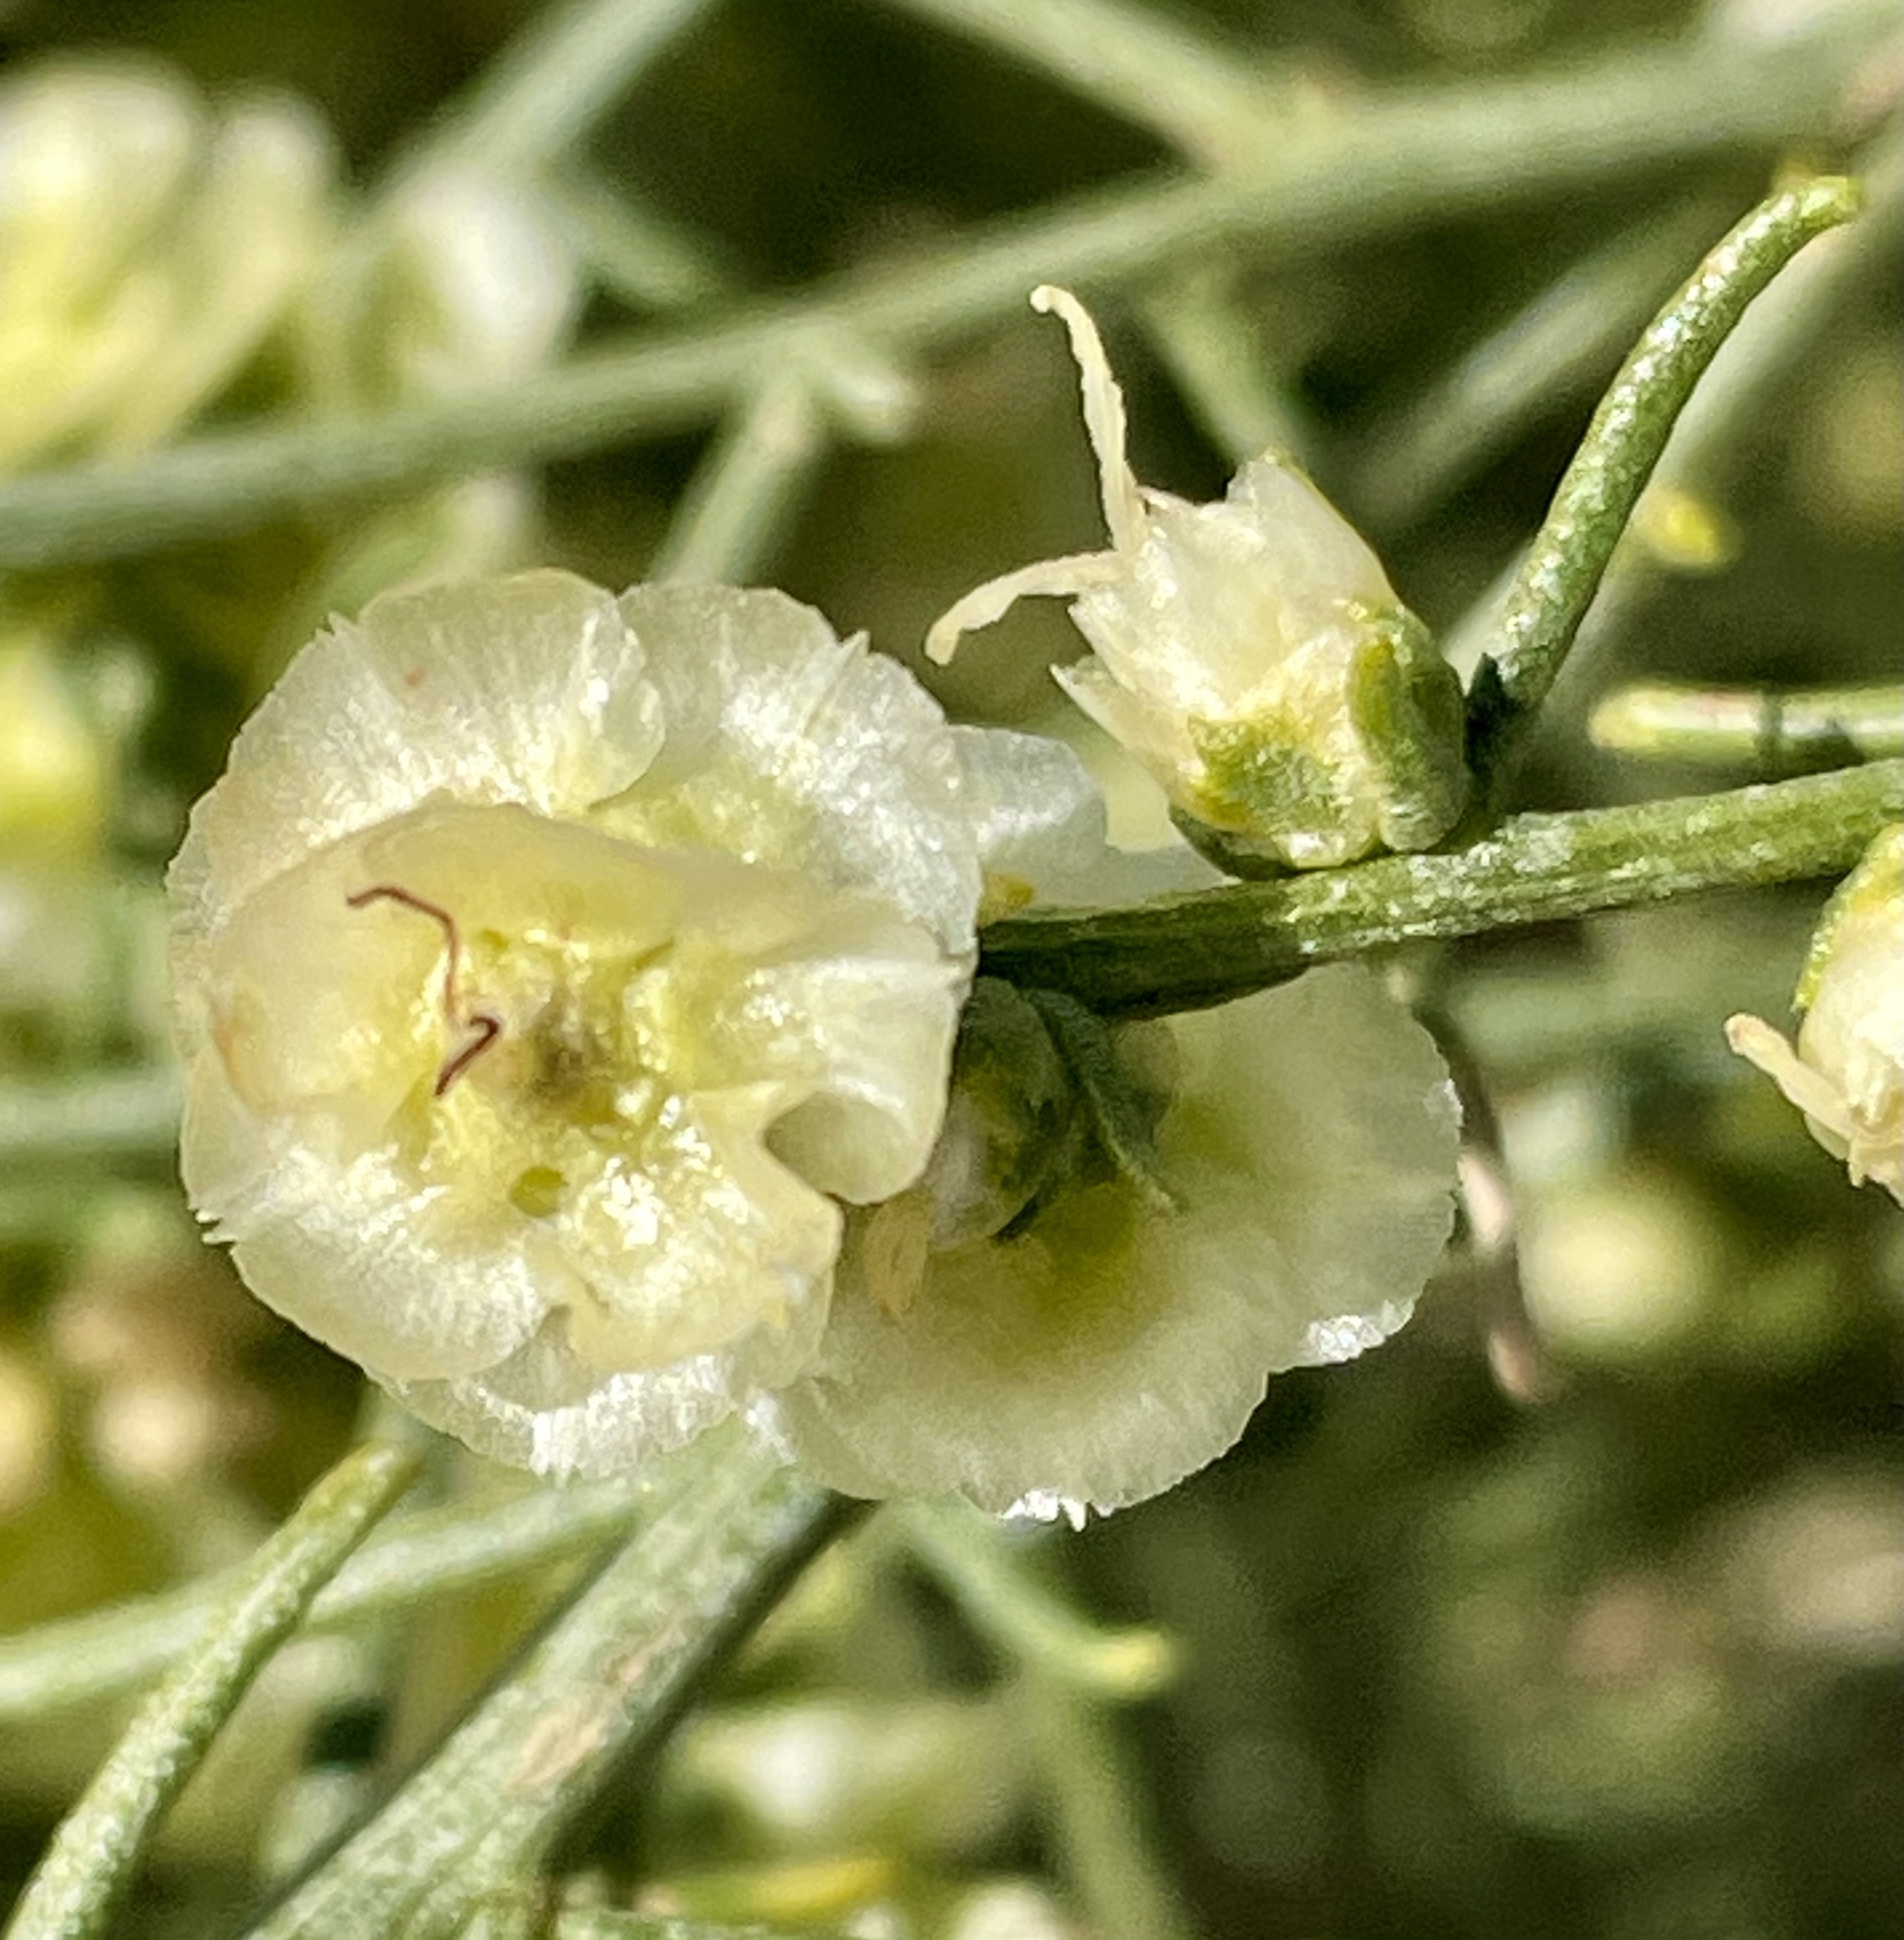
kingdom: Plantae
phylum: Tracheophyta
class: Magnoliopsida
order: Asterales
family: Asteraceae
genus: Ambrosia
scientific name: Ambrosia salsola
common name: Burrobrush
